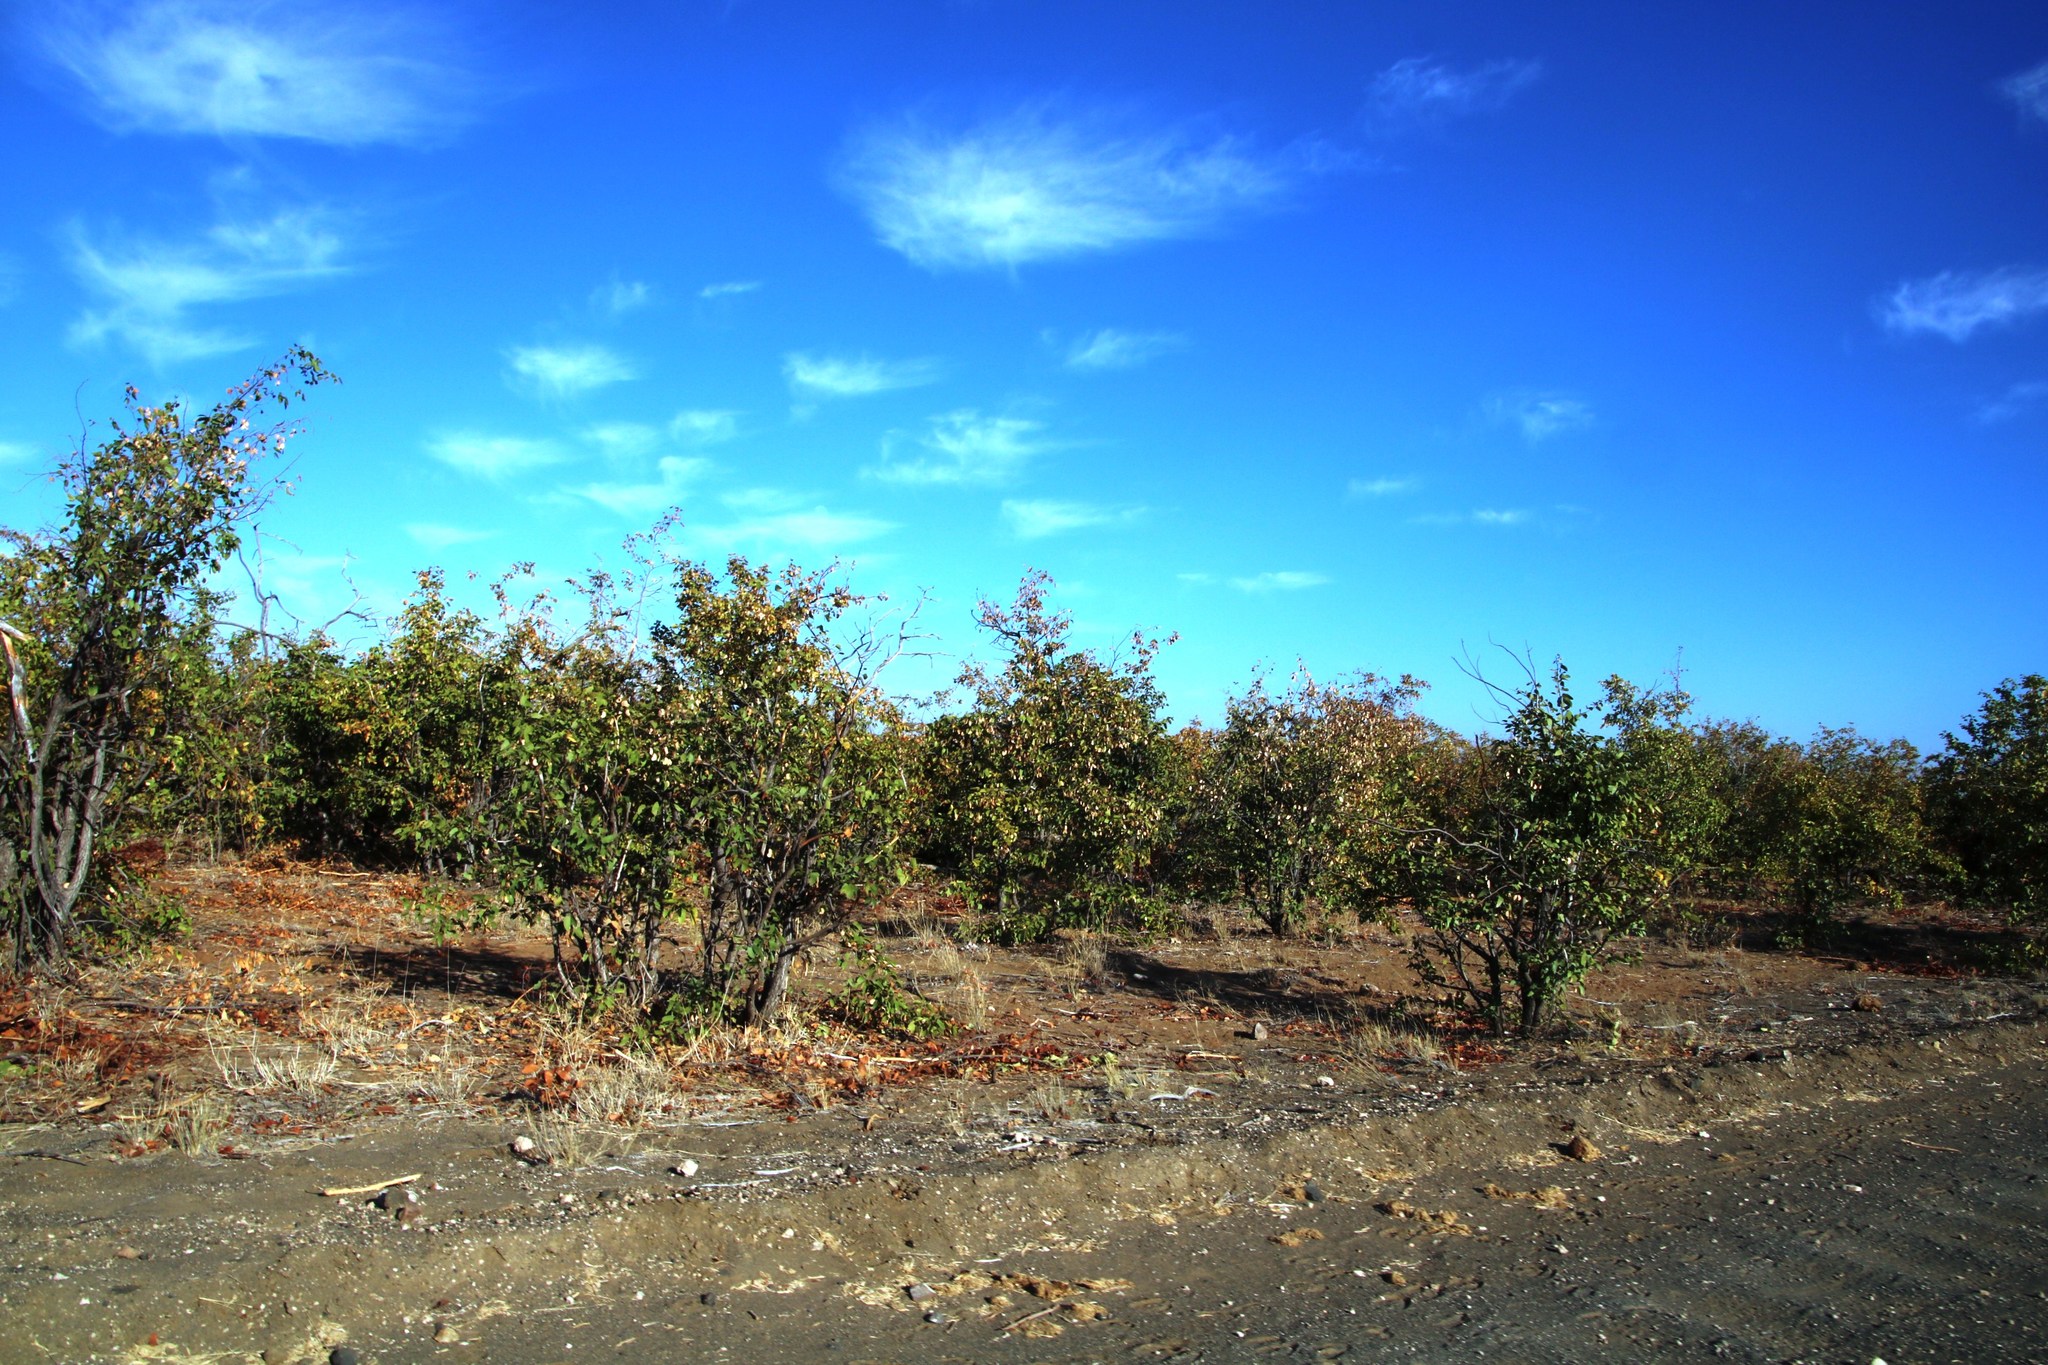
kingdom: Plantae
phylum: Tracheophyta
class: Magnoliopsida
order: Fabales
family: Fabaceae
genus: Colophospermum
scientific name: Colophospermum mopane
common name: Mopane
